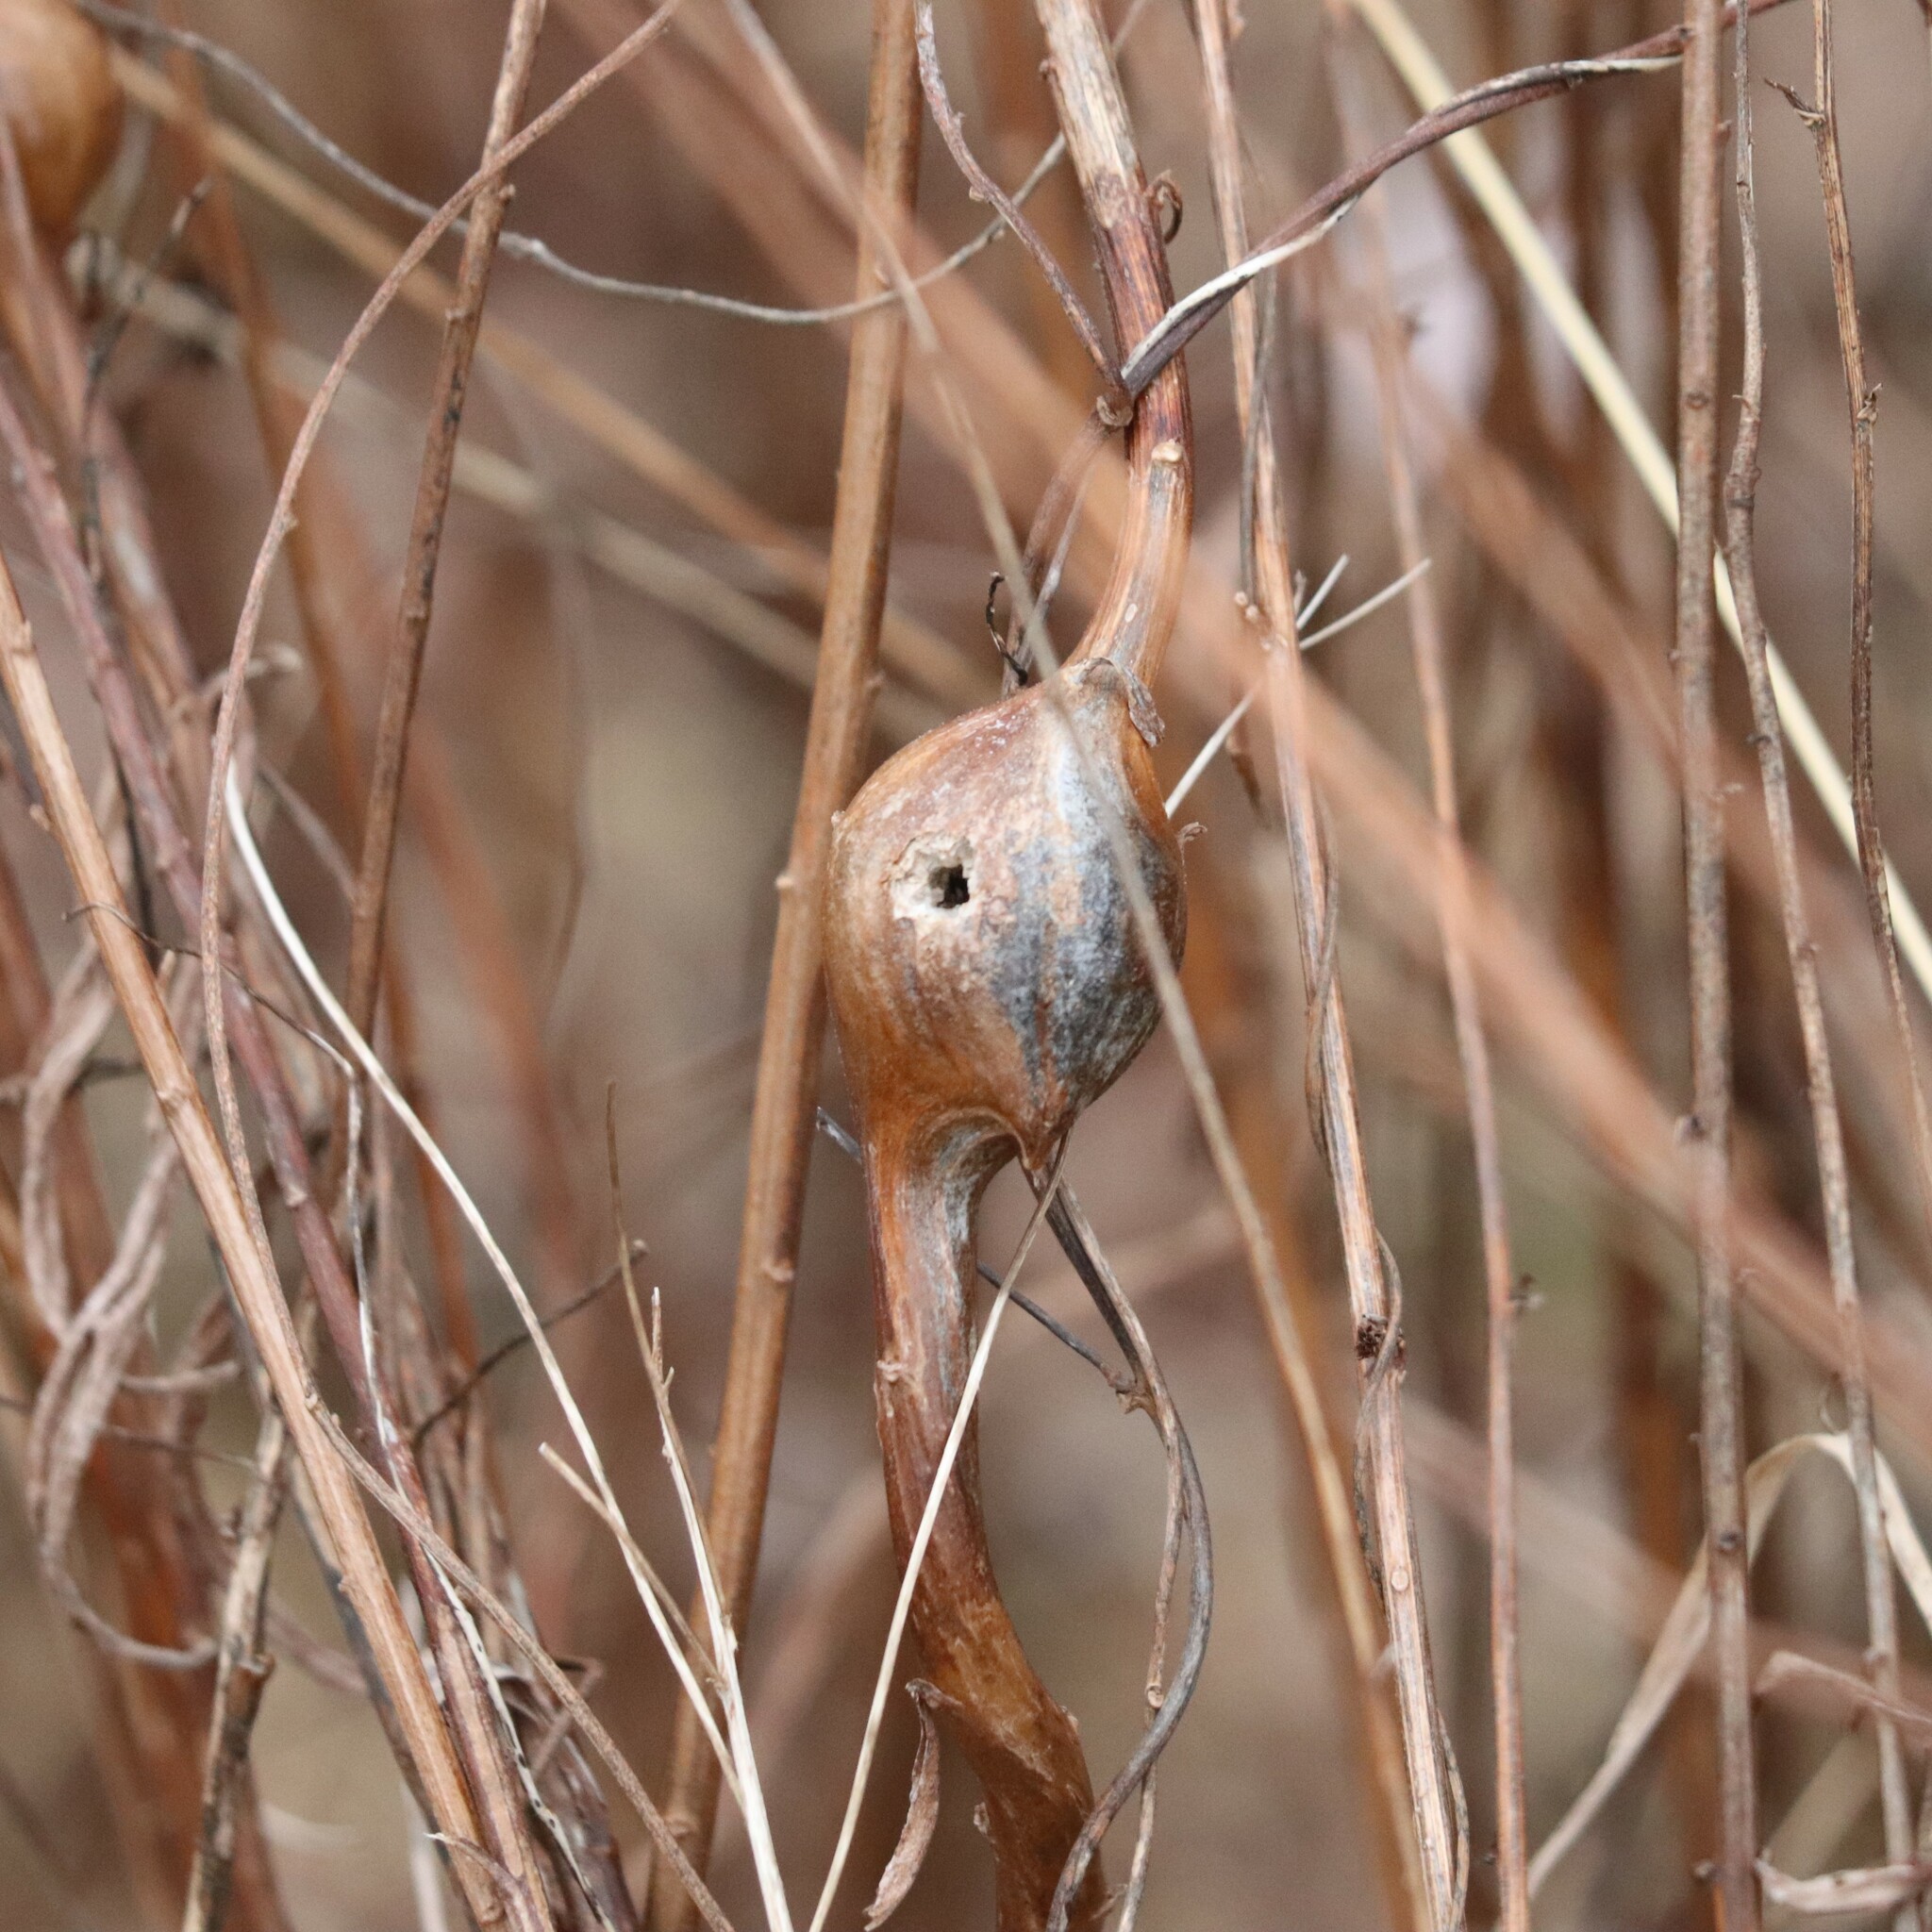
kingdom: Animalia
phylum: Arthropoda
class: Insecta
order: Diptera
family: Tephritidae
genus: Eurosta
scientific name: Eurosta solidaginis
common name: Goldenrod gall fly
